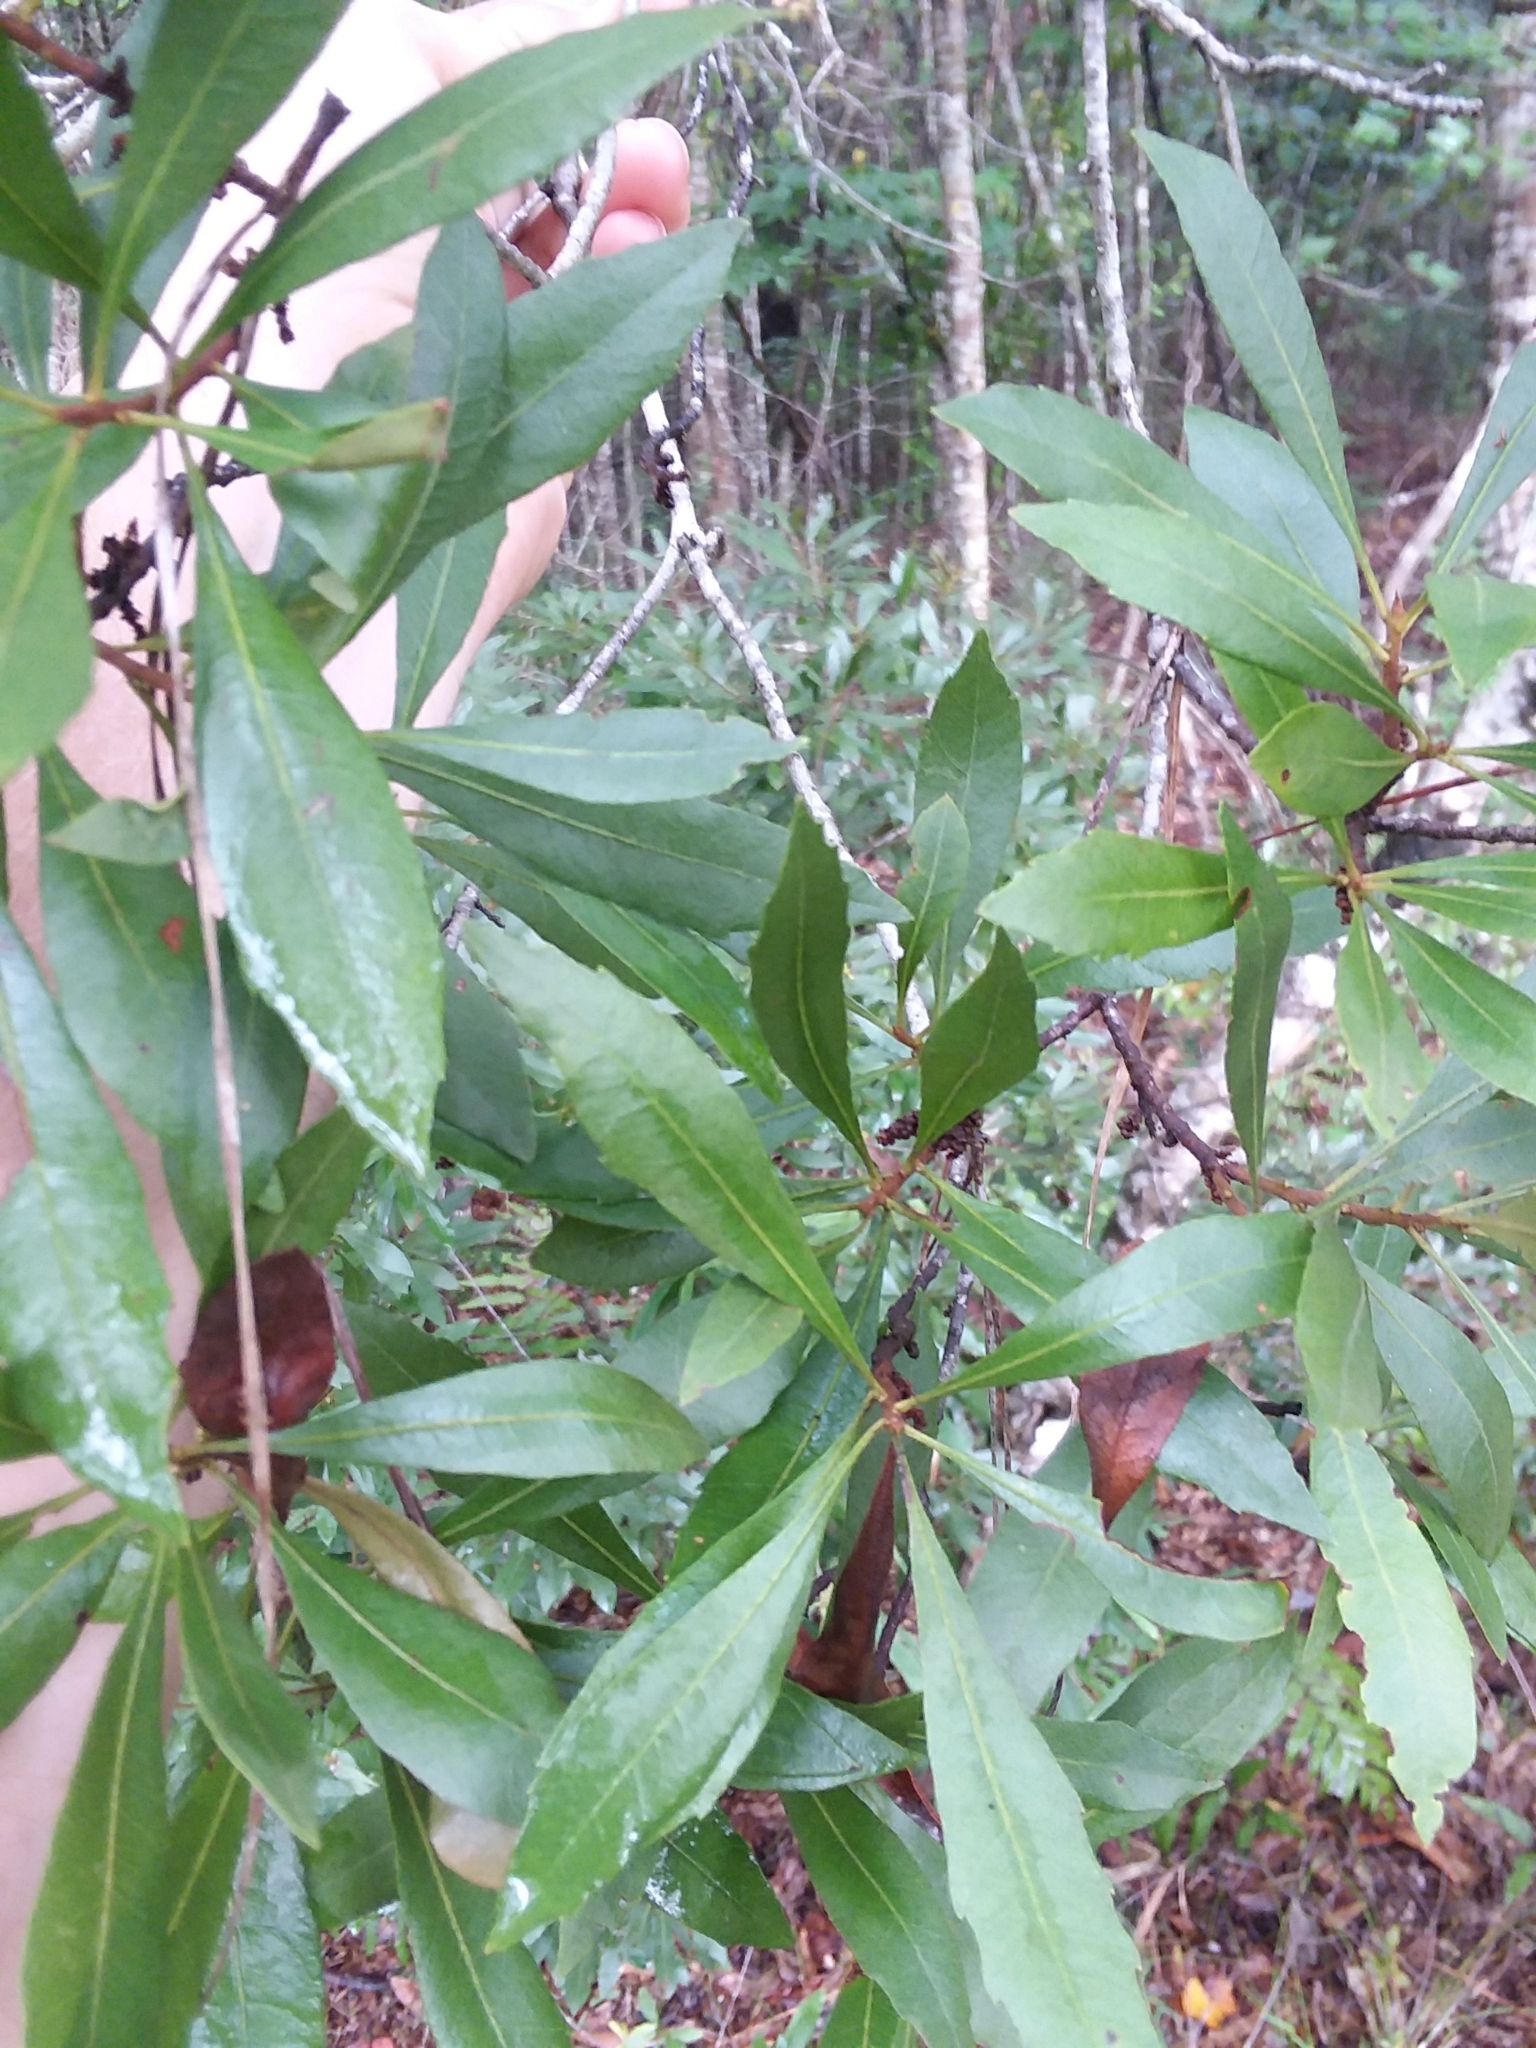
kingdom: Plantae
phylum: Tracheophyta
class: Magnoliopsida
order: Fagales
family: Myricaceae
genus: Morella
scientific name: Morella cerifera
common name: Wax myrtle
